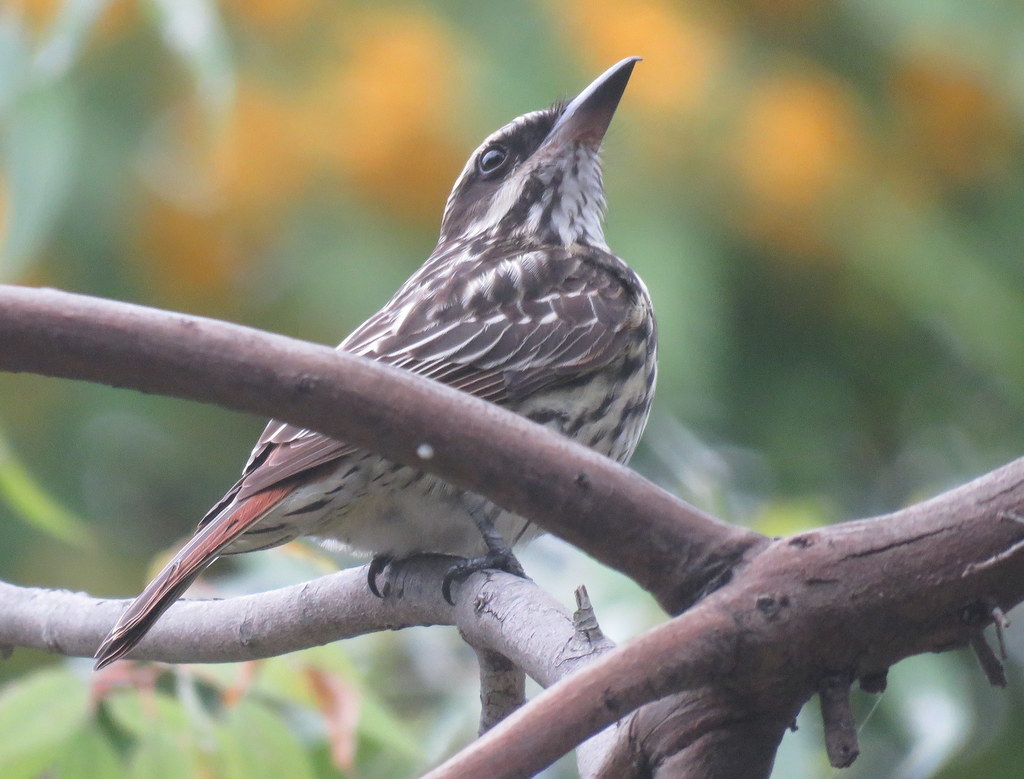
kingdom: Animalia
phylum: Chordata
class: Aves
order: Passeriformes
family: Tyrannidae
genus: Myiodynastes
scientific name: Myiodynastes maculatus
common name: Streaked flycatcher
